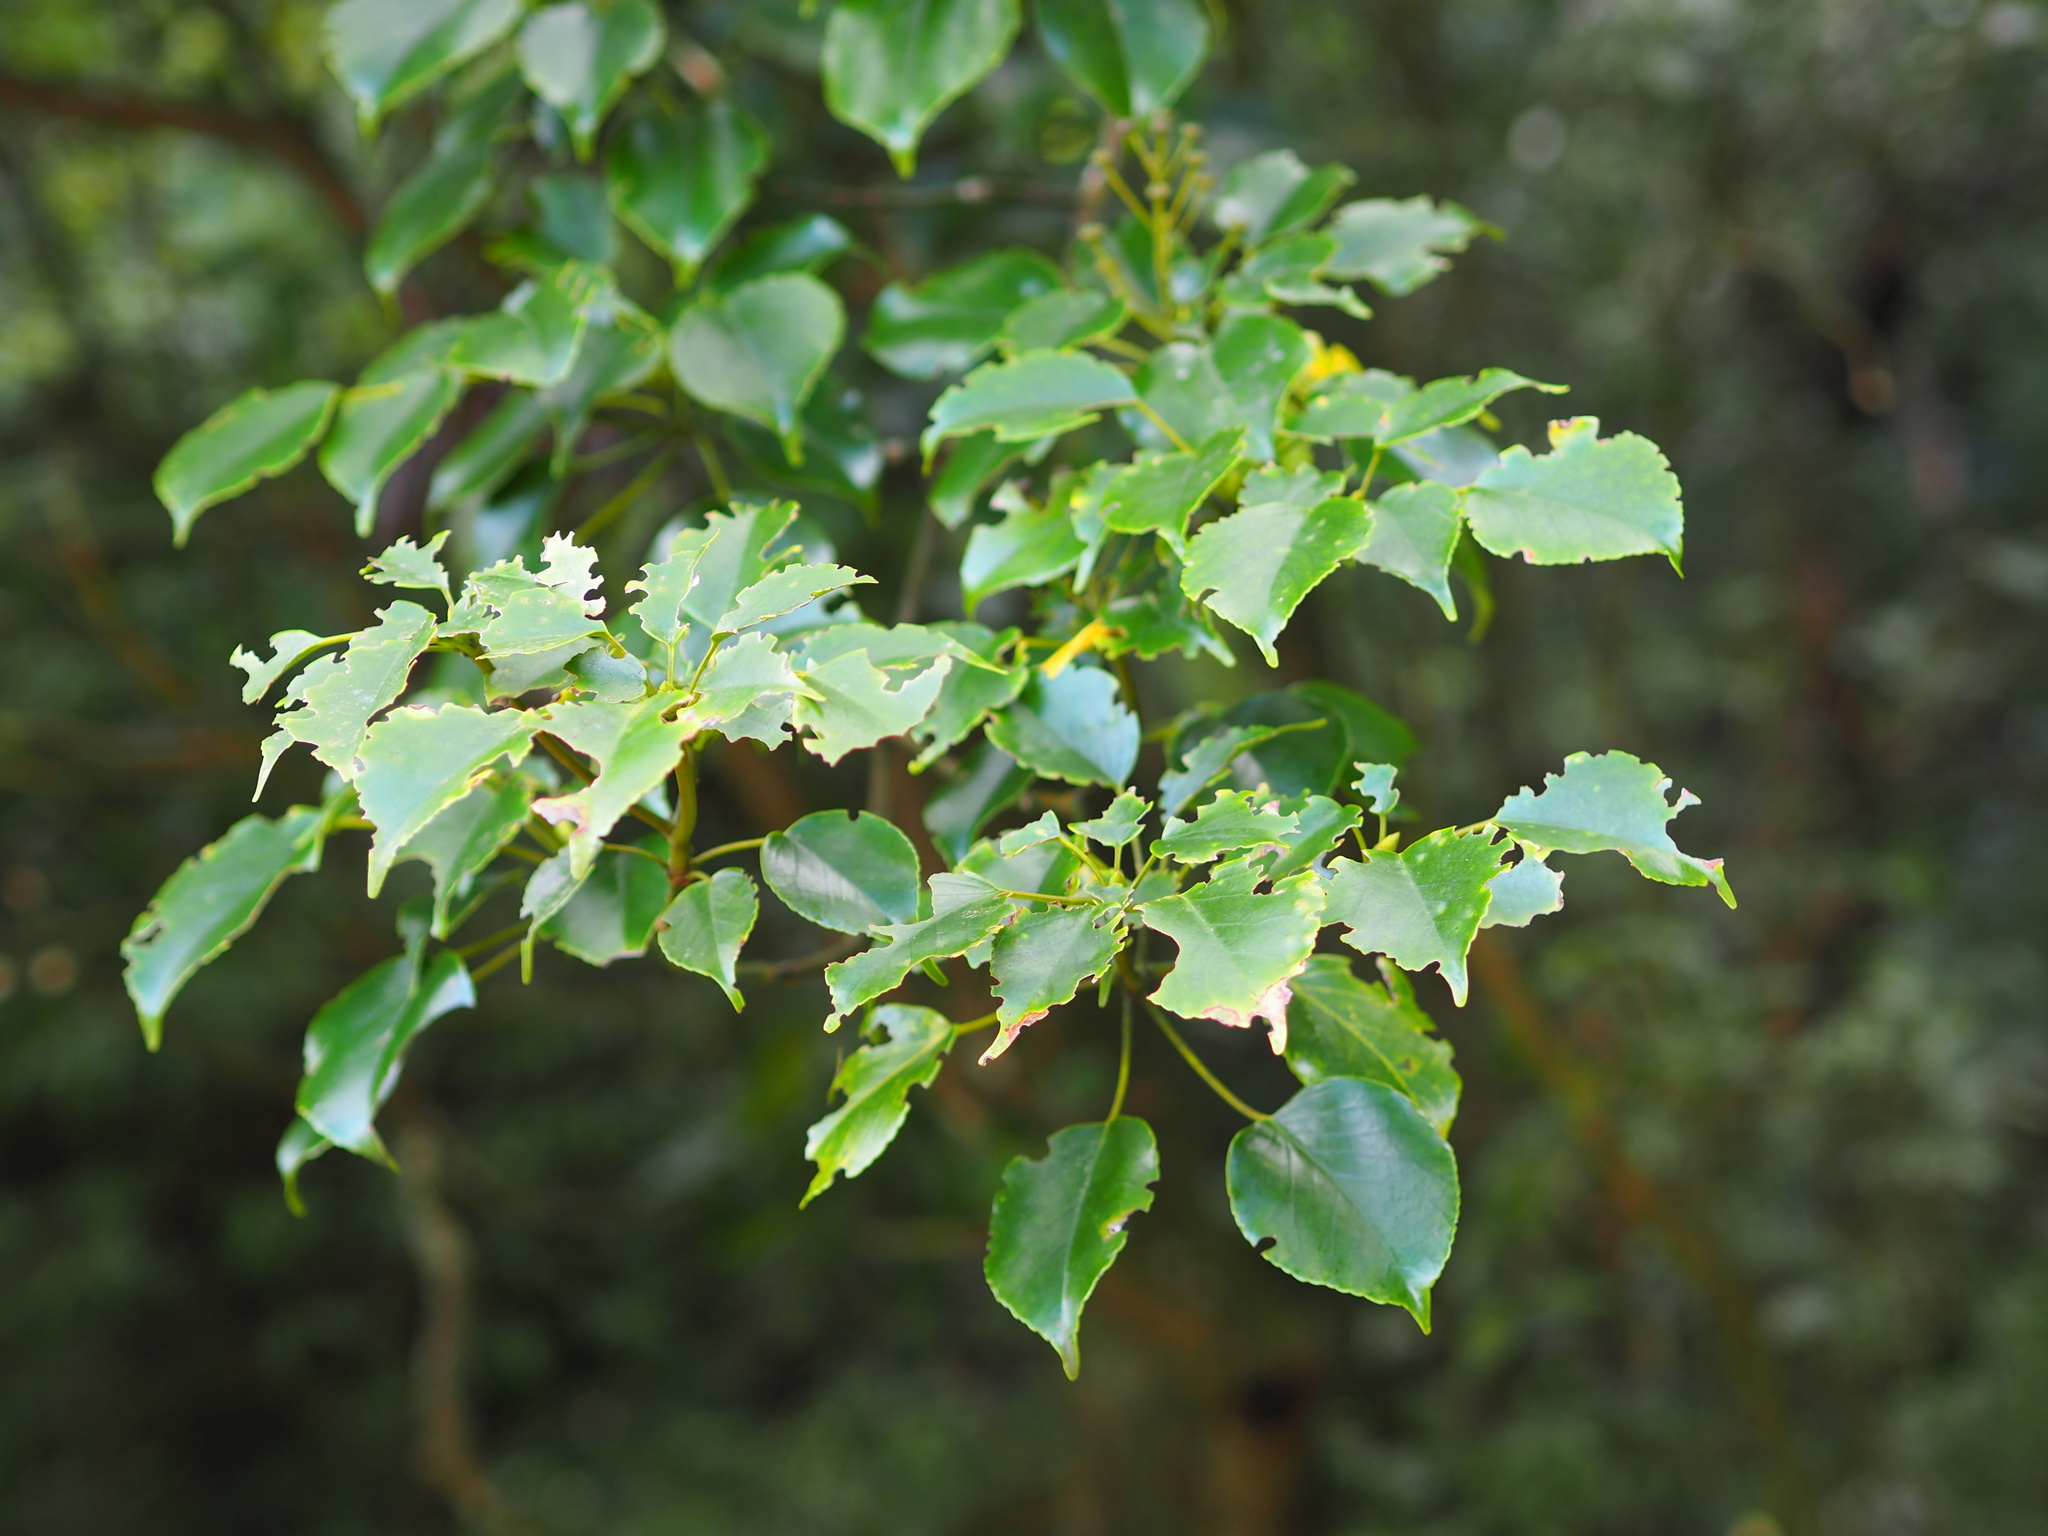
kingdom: Plantae
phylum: Tracheophyta
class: Magnoliopsida
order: Trochodendrales
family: Trochodendraceae
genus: Trochodendron
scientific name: Trochodendron aralioides
